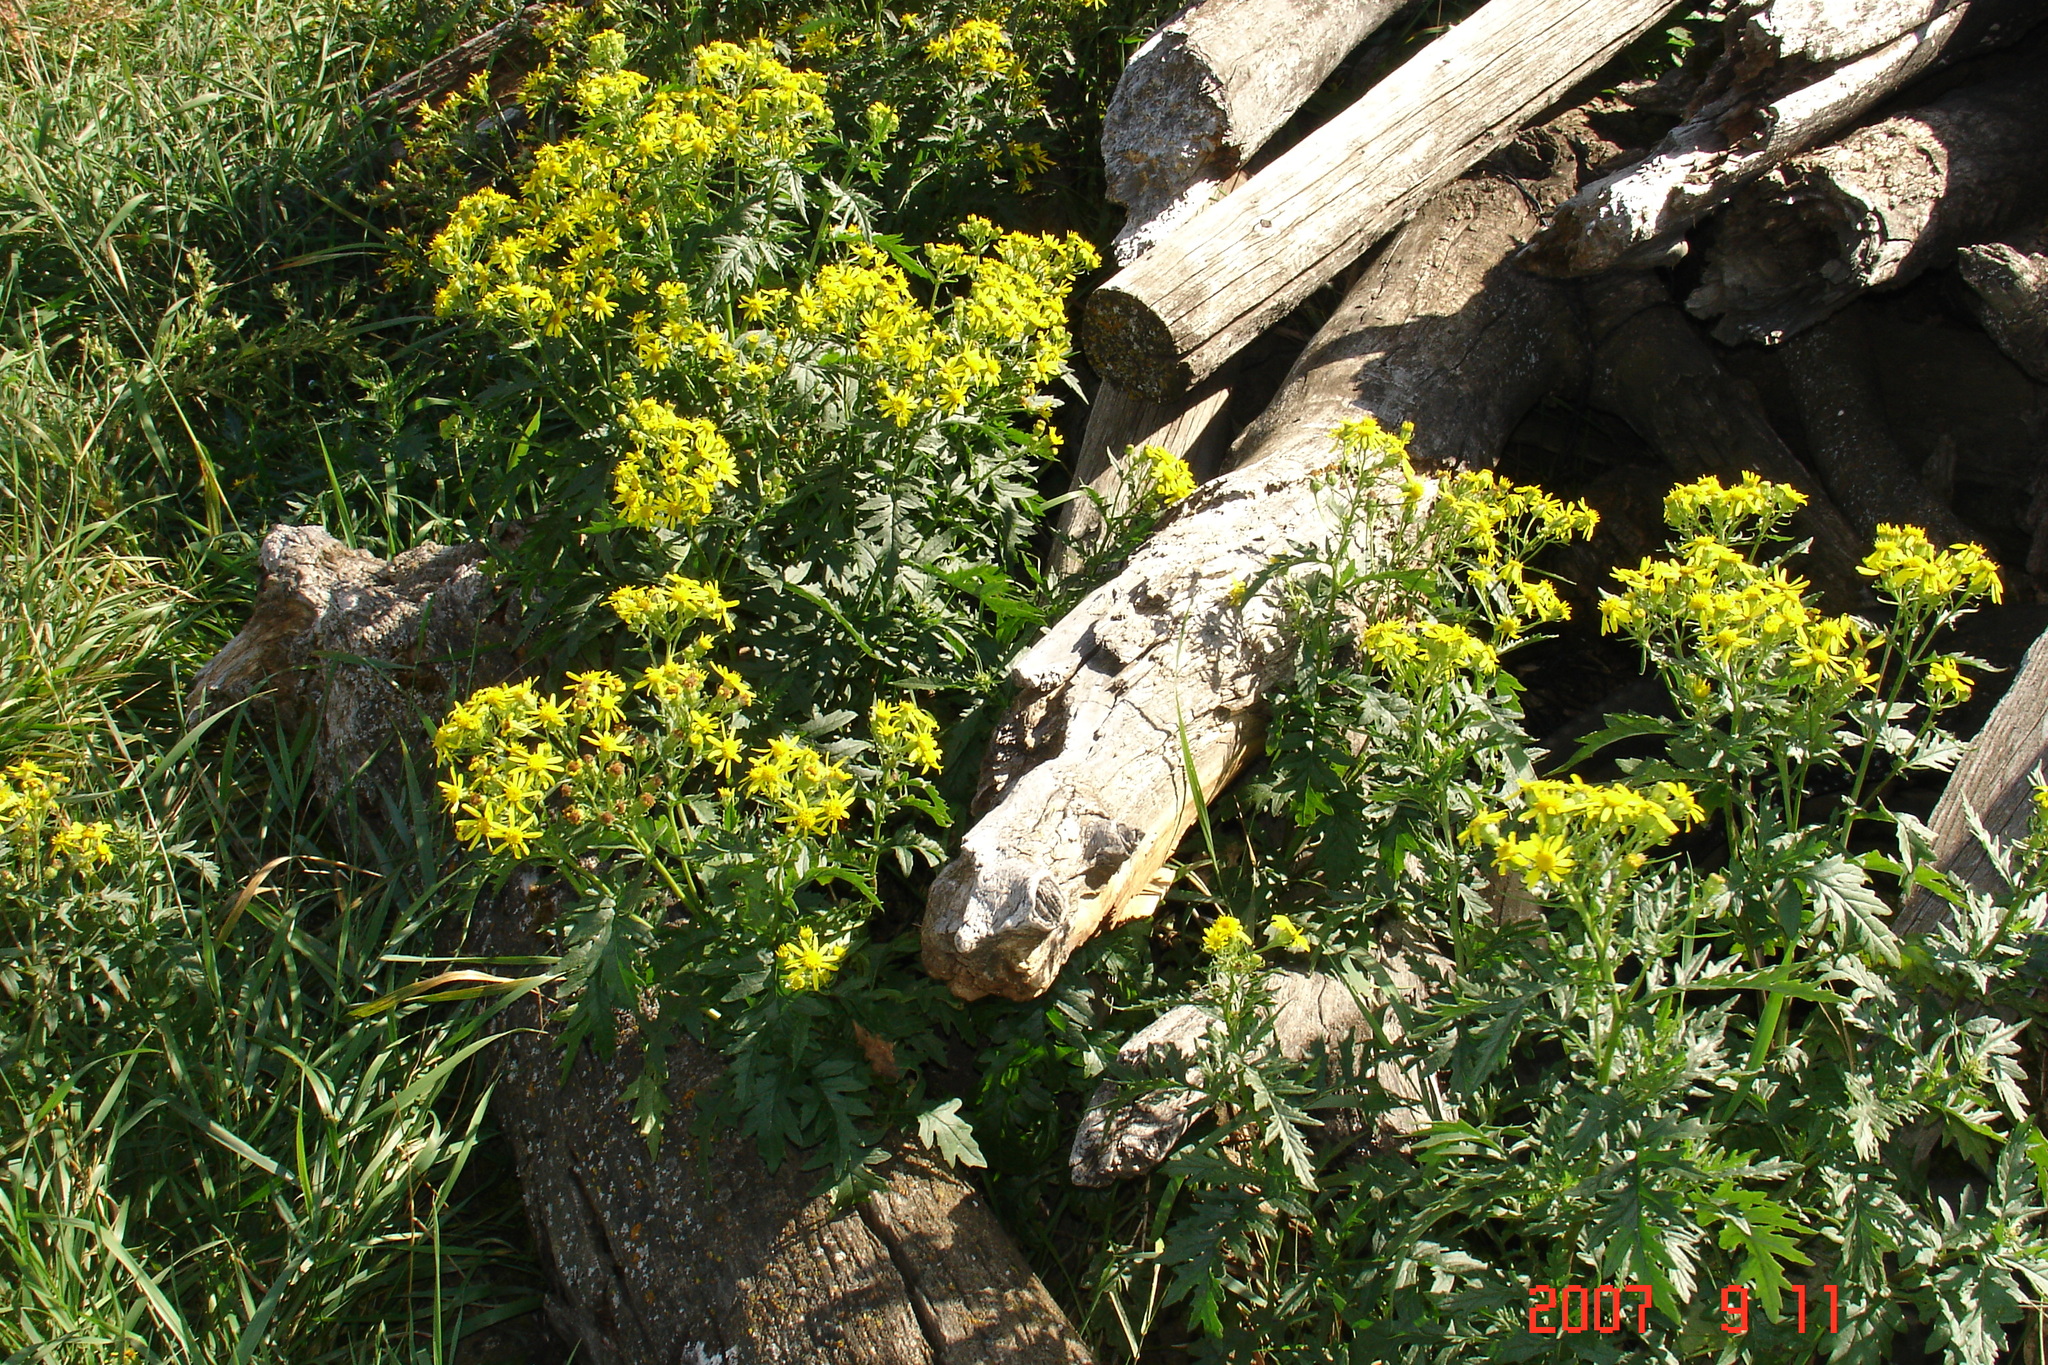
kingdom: Plantae
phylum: Tracheophyta
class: Magnoliopsida
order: Asterales
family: Asteraceae
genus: Senecio
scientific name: Senecio eremophilus
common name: Desert ragwort
